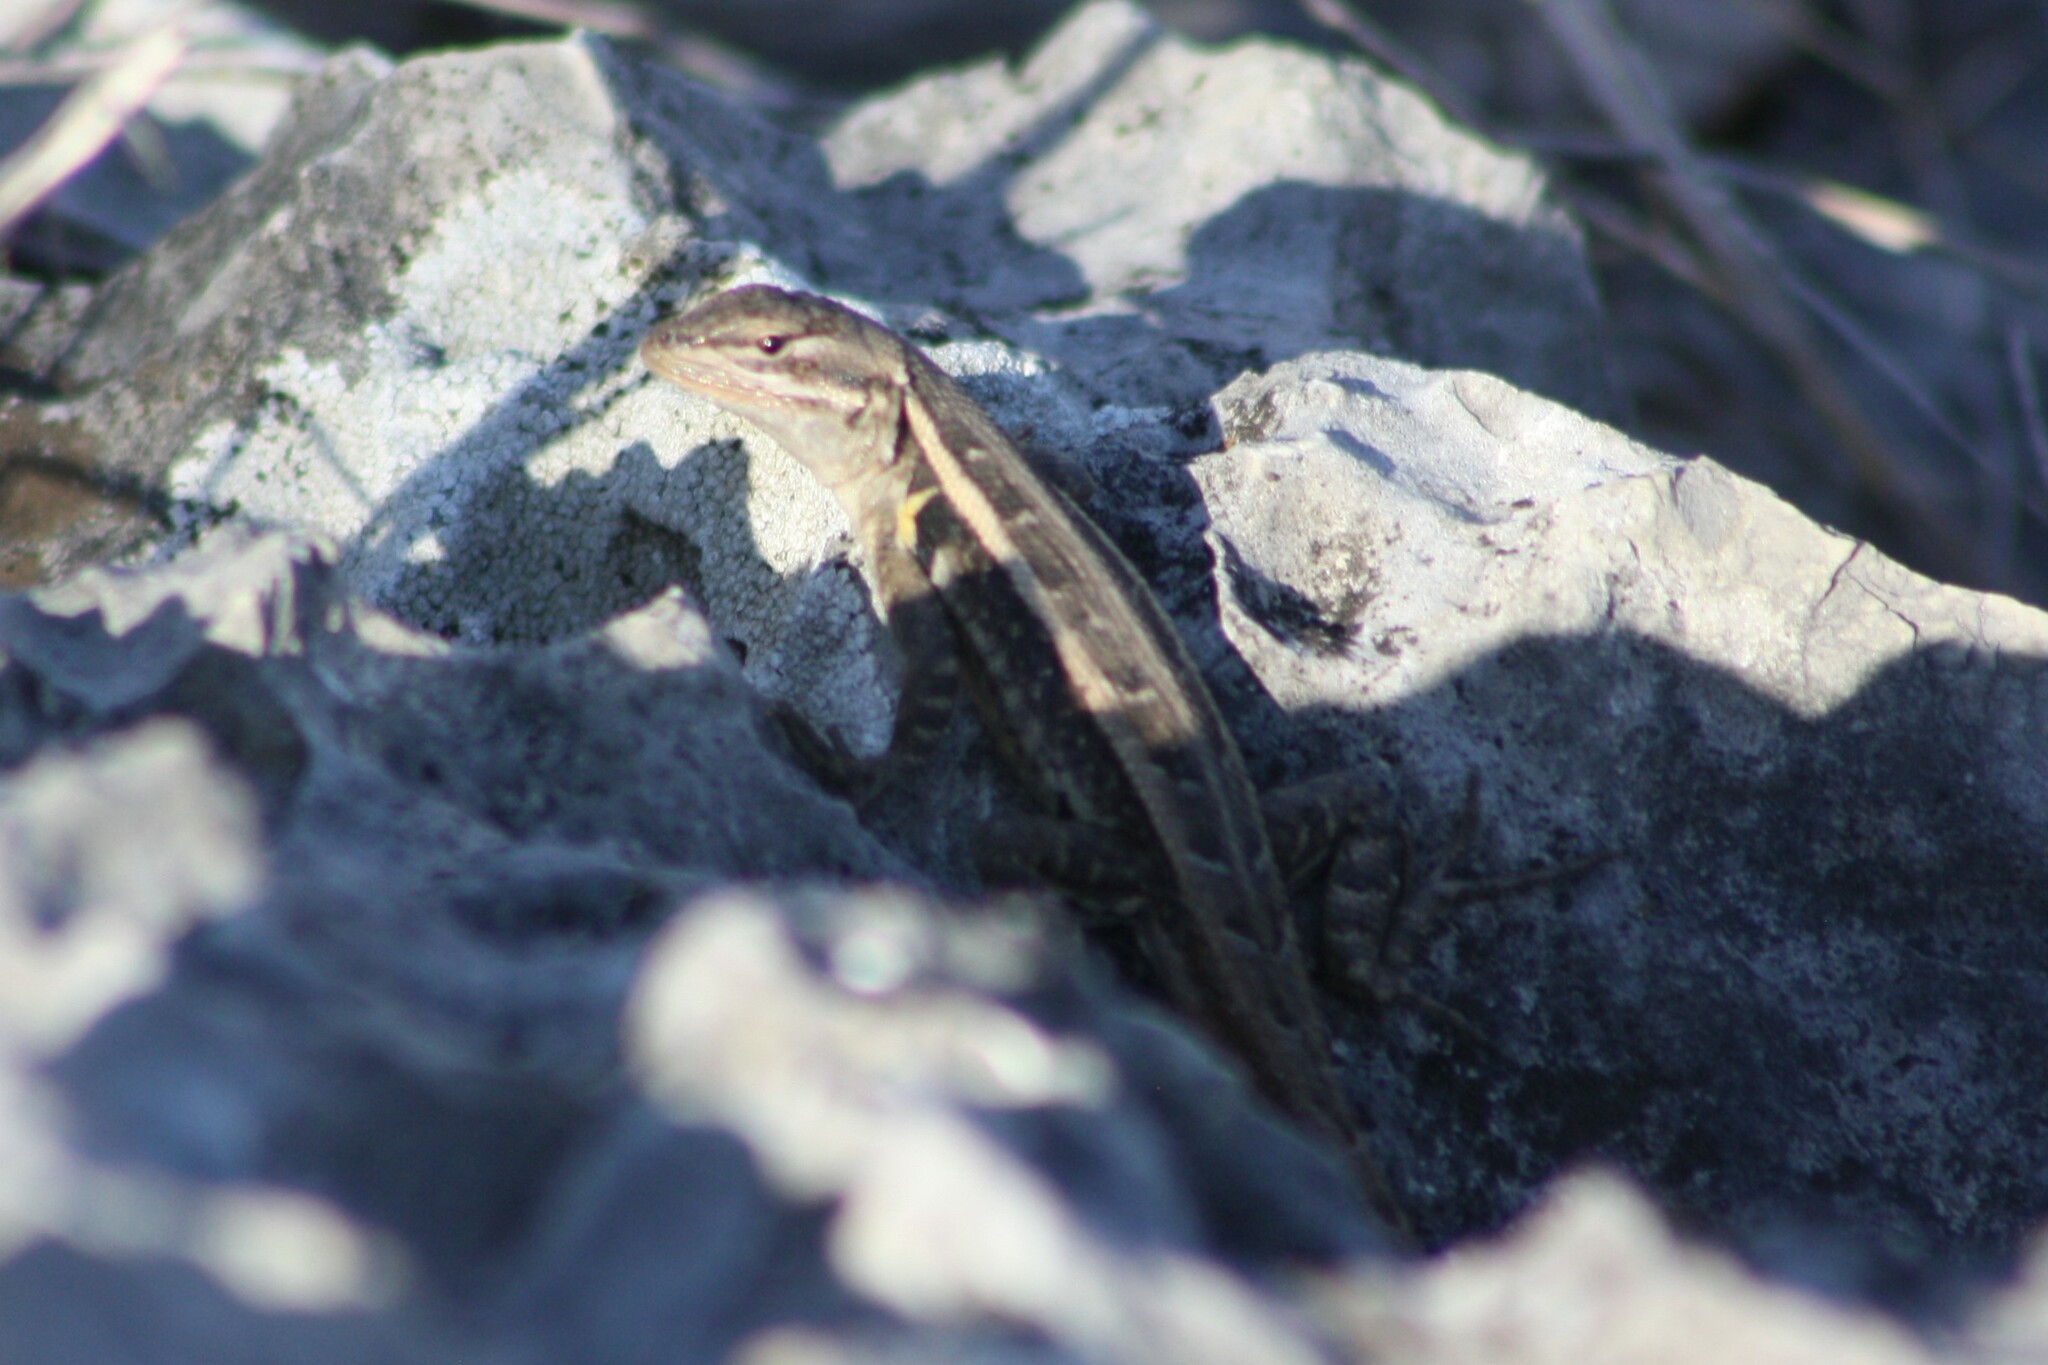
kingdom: Animalia
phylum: Chordata
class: Squamata
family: Phrynosomatidae
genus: Sceloporus
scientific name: Sceloporus variabilis
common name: Rosebelly lizard
